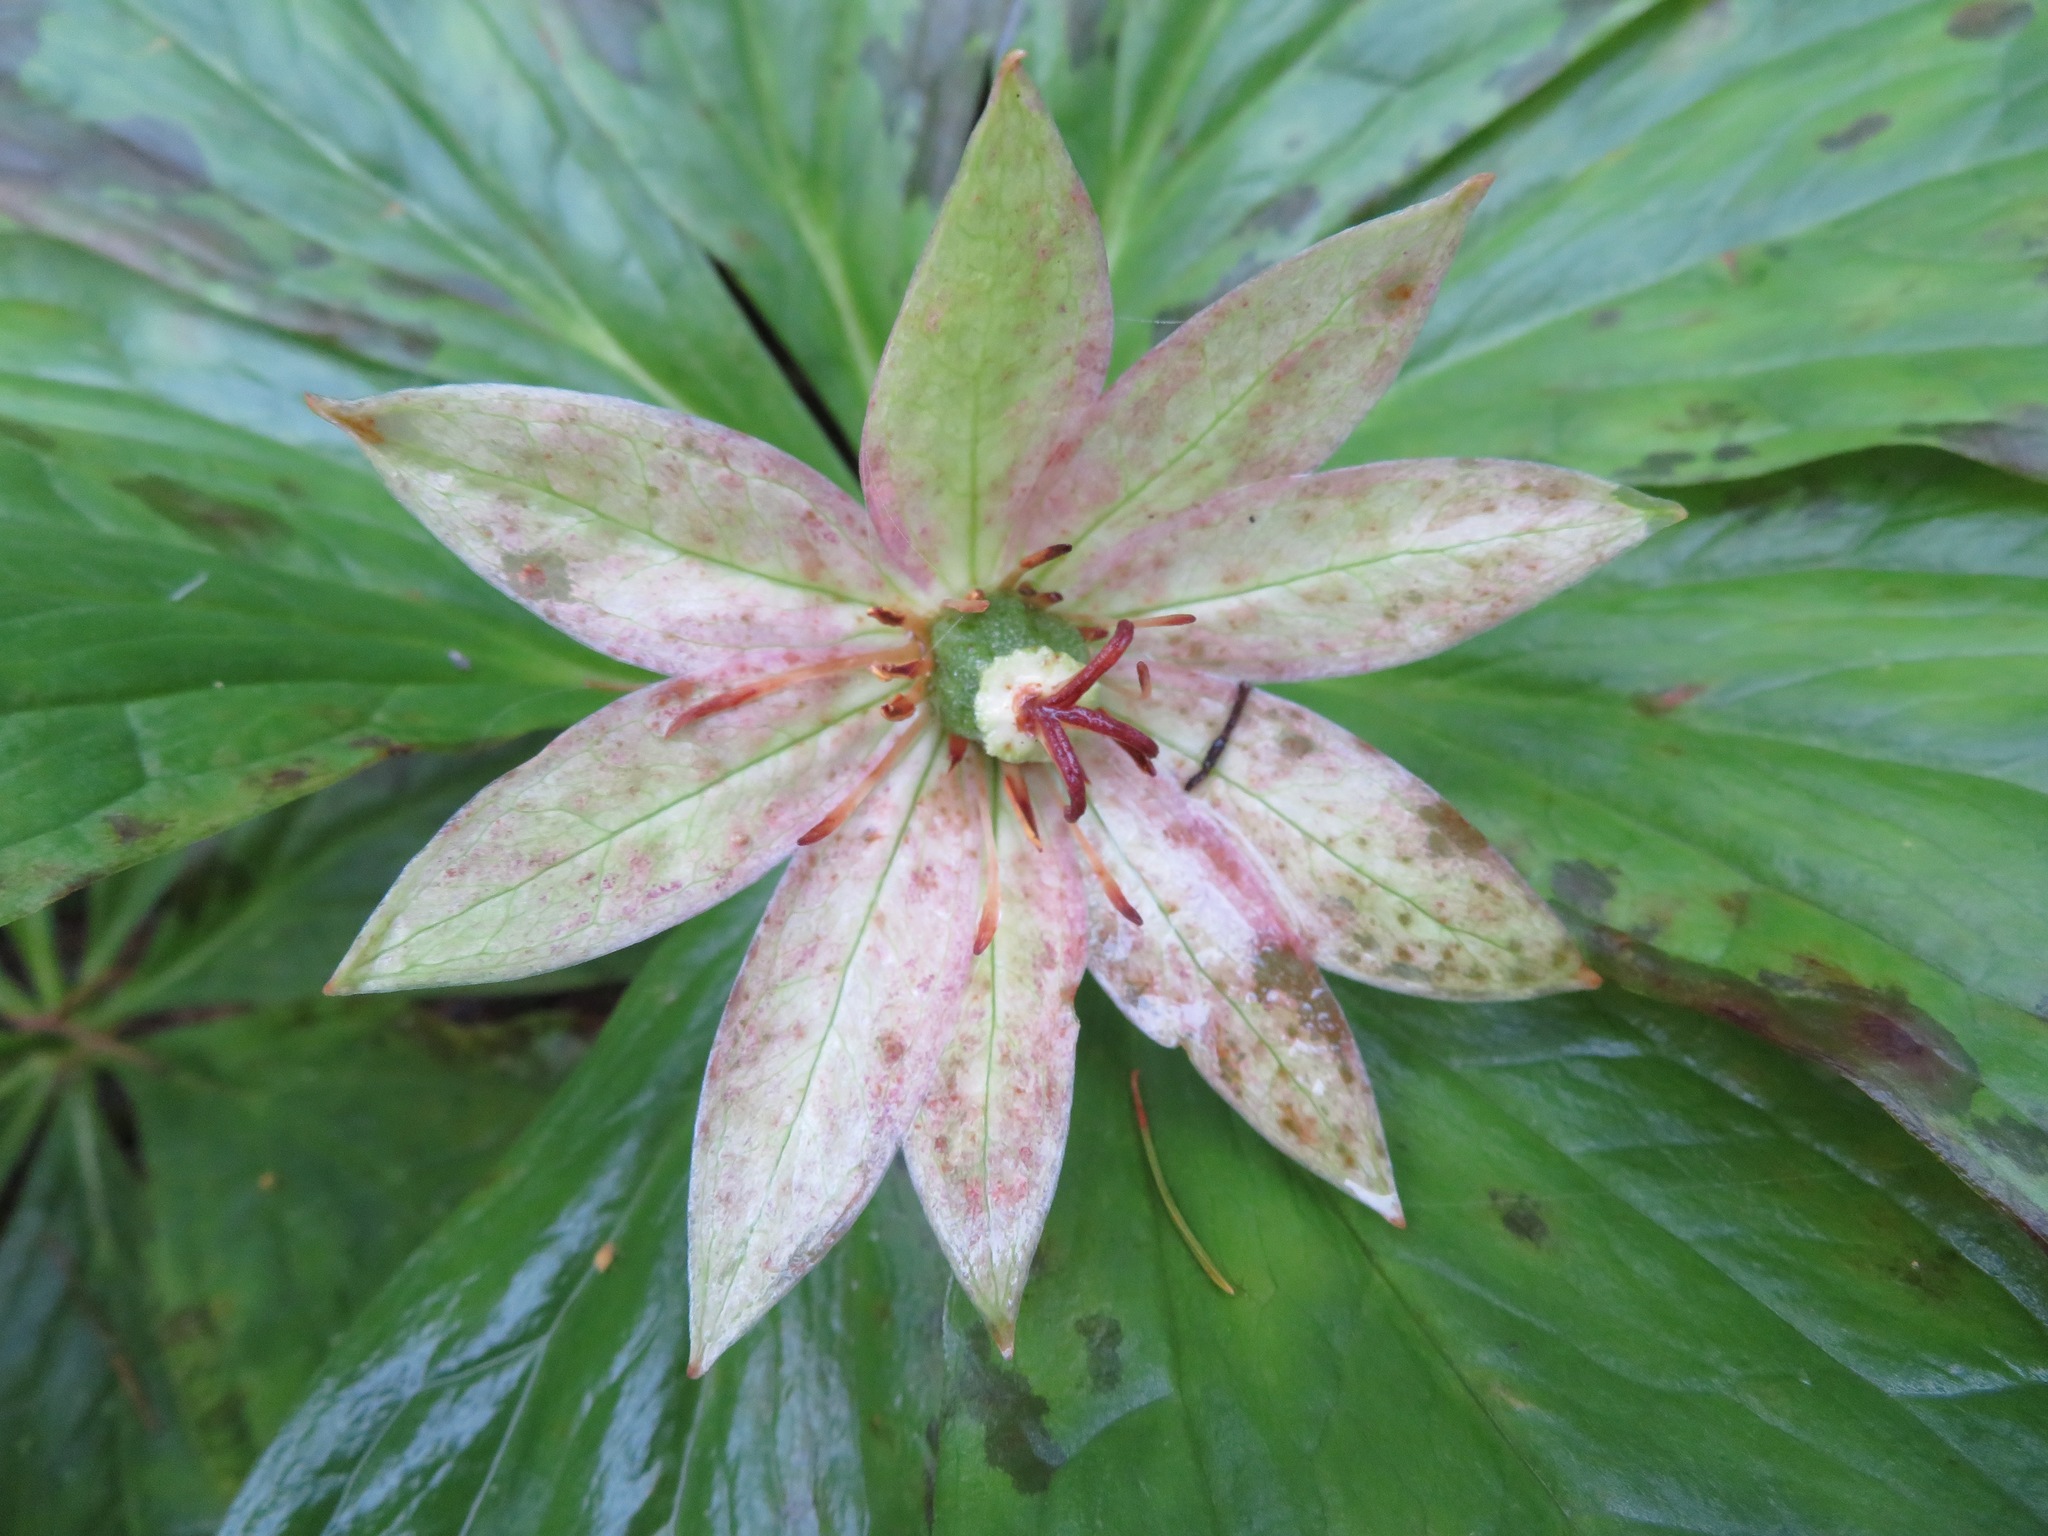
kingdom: Plantae
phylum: Tracheophyta
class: Liliopsida
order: Liliales
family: Melanthiaceae
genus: Paris
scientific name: Paris japonica
